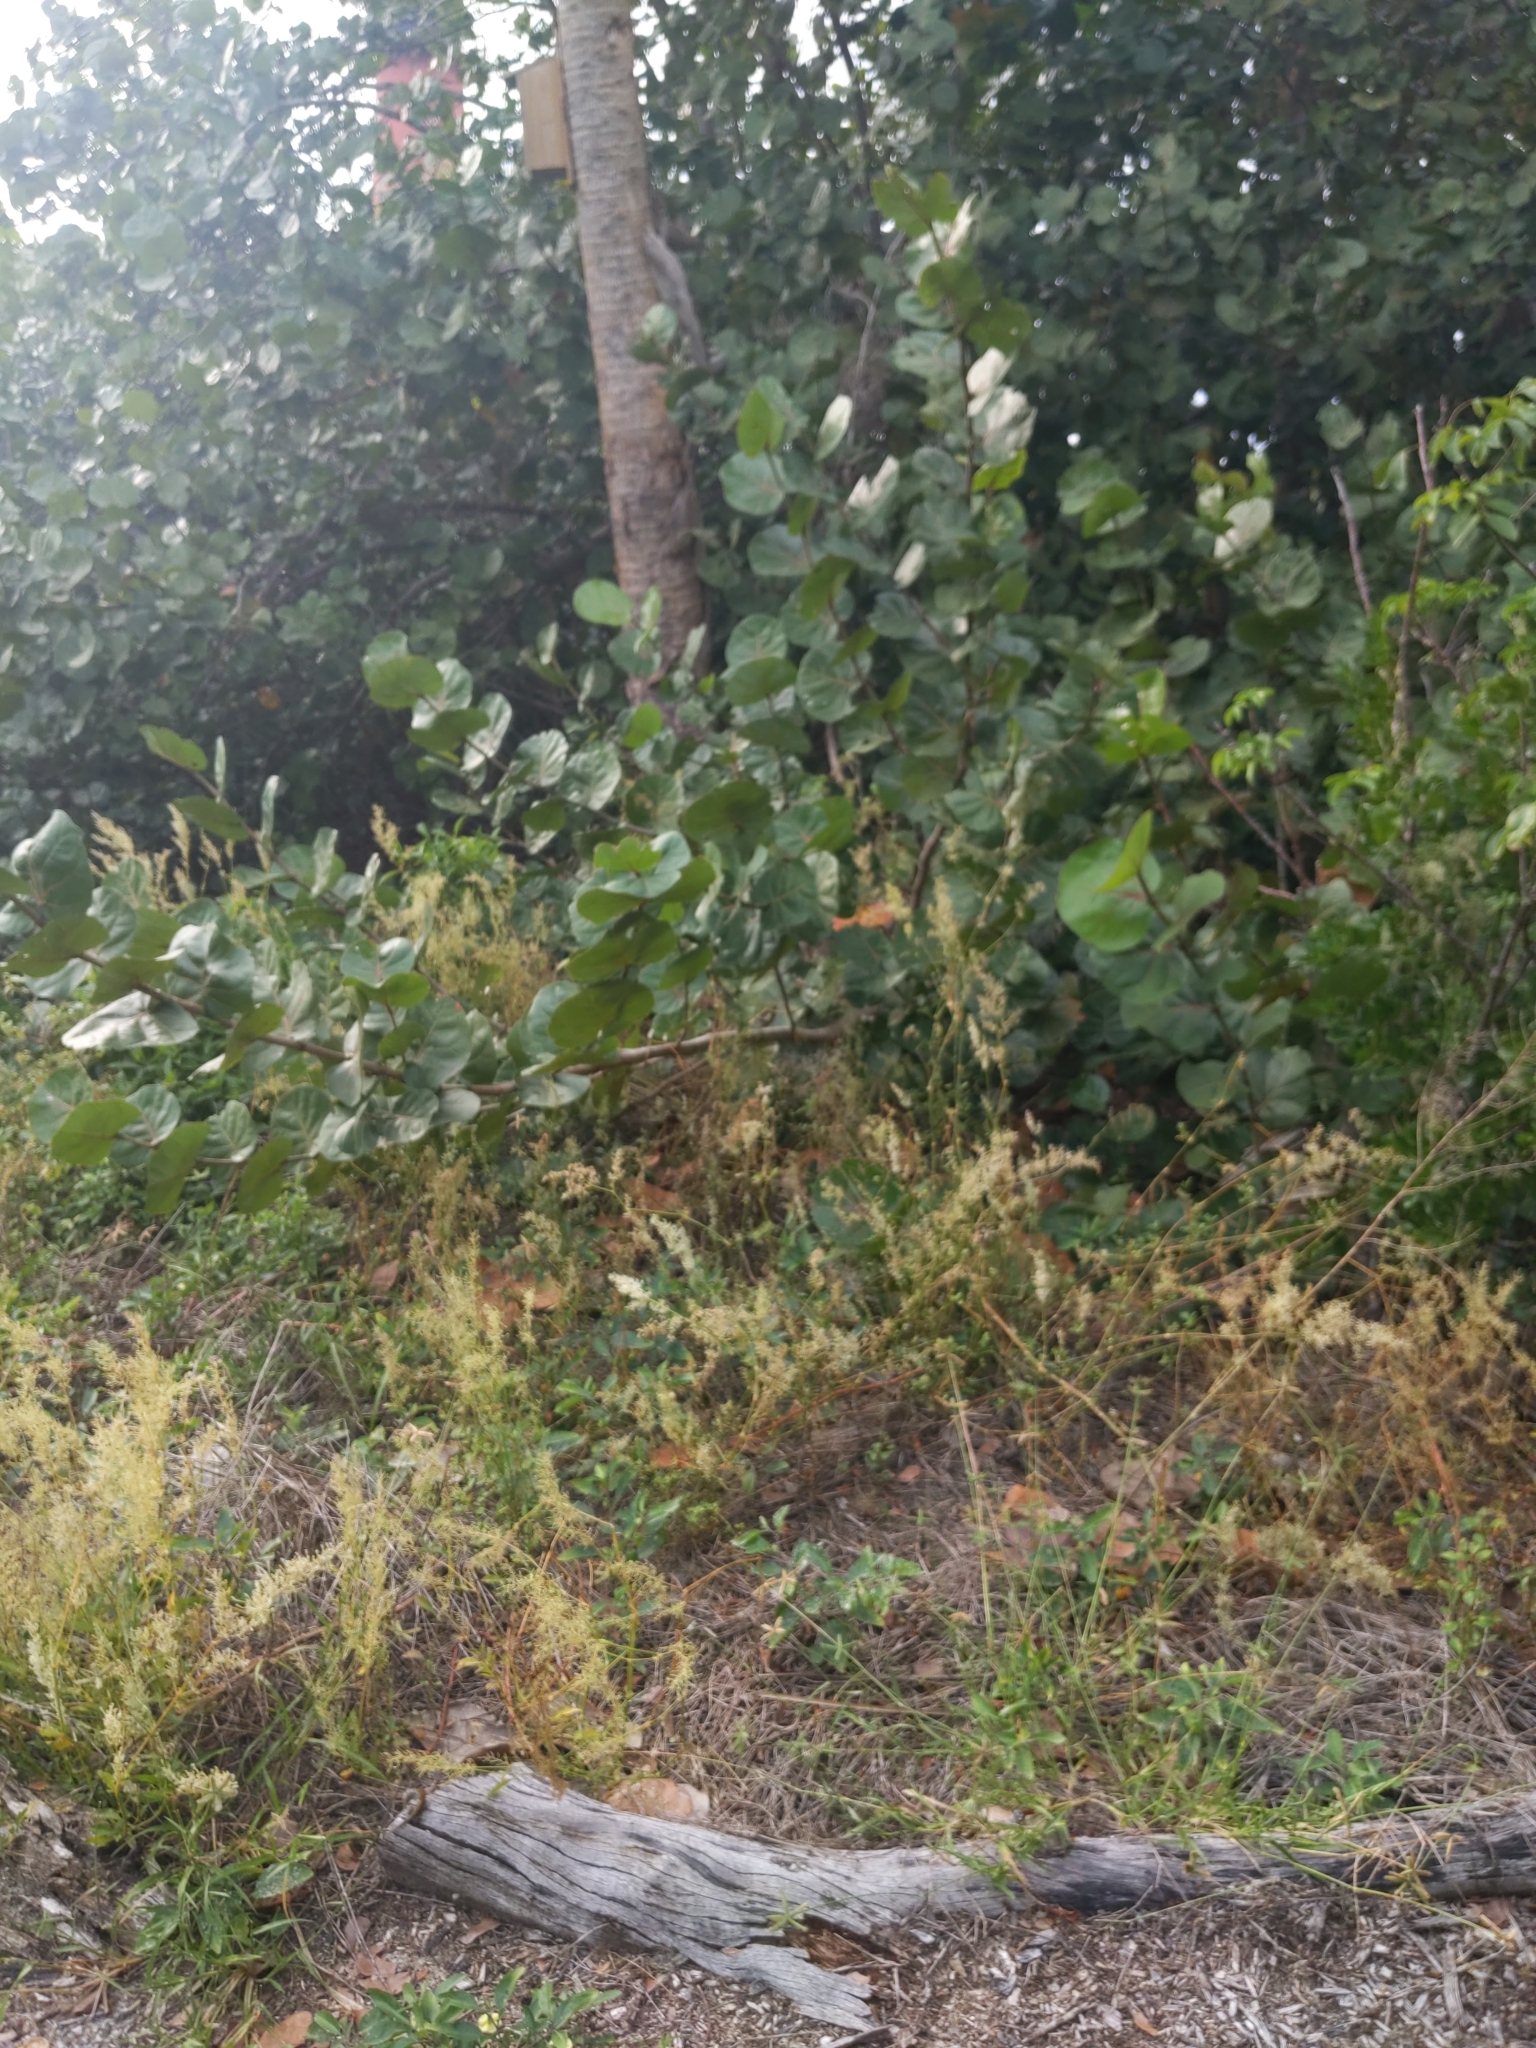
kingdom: Plantae
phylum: Tracheophyta
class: Magnoliopsida
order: Caryophyllales
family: Polygonaceae
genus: Coccoloba
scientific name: Coccoloba uvifera
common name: Seagrape
